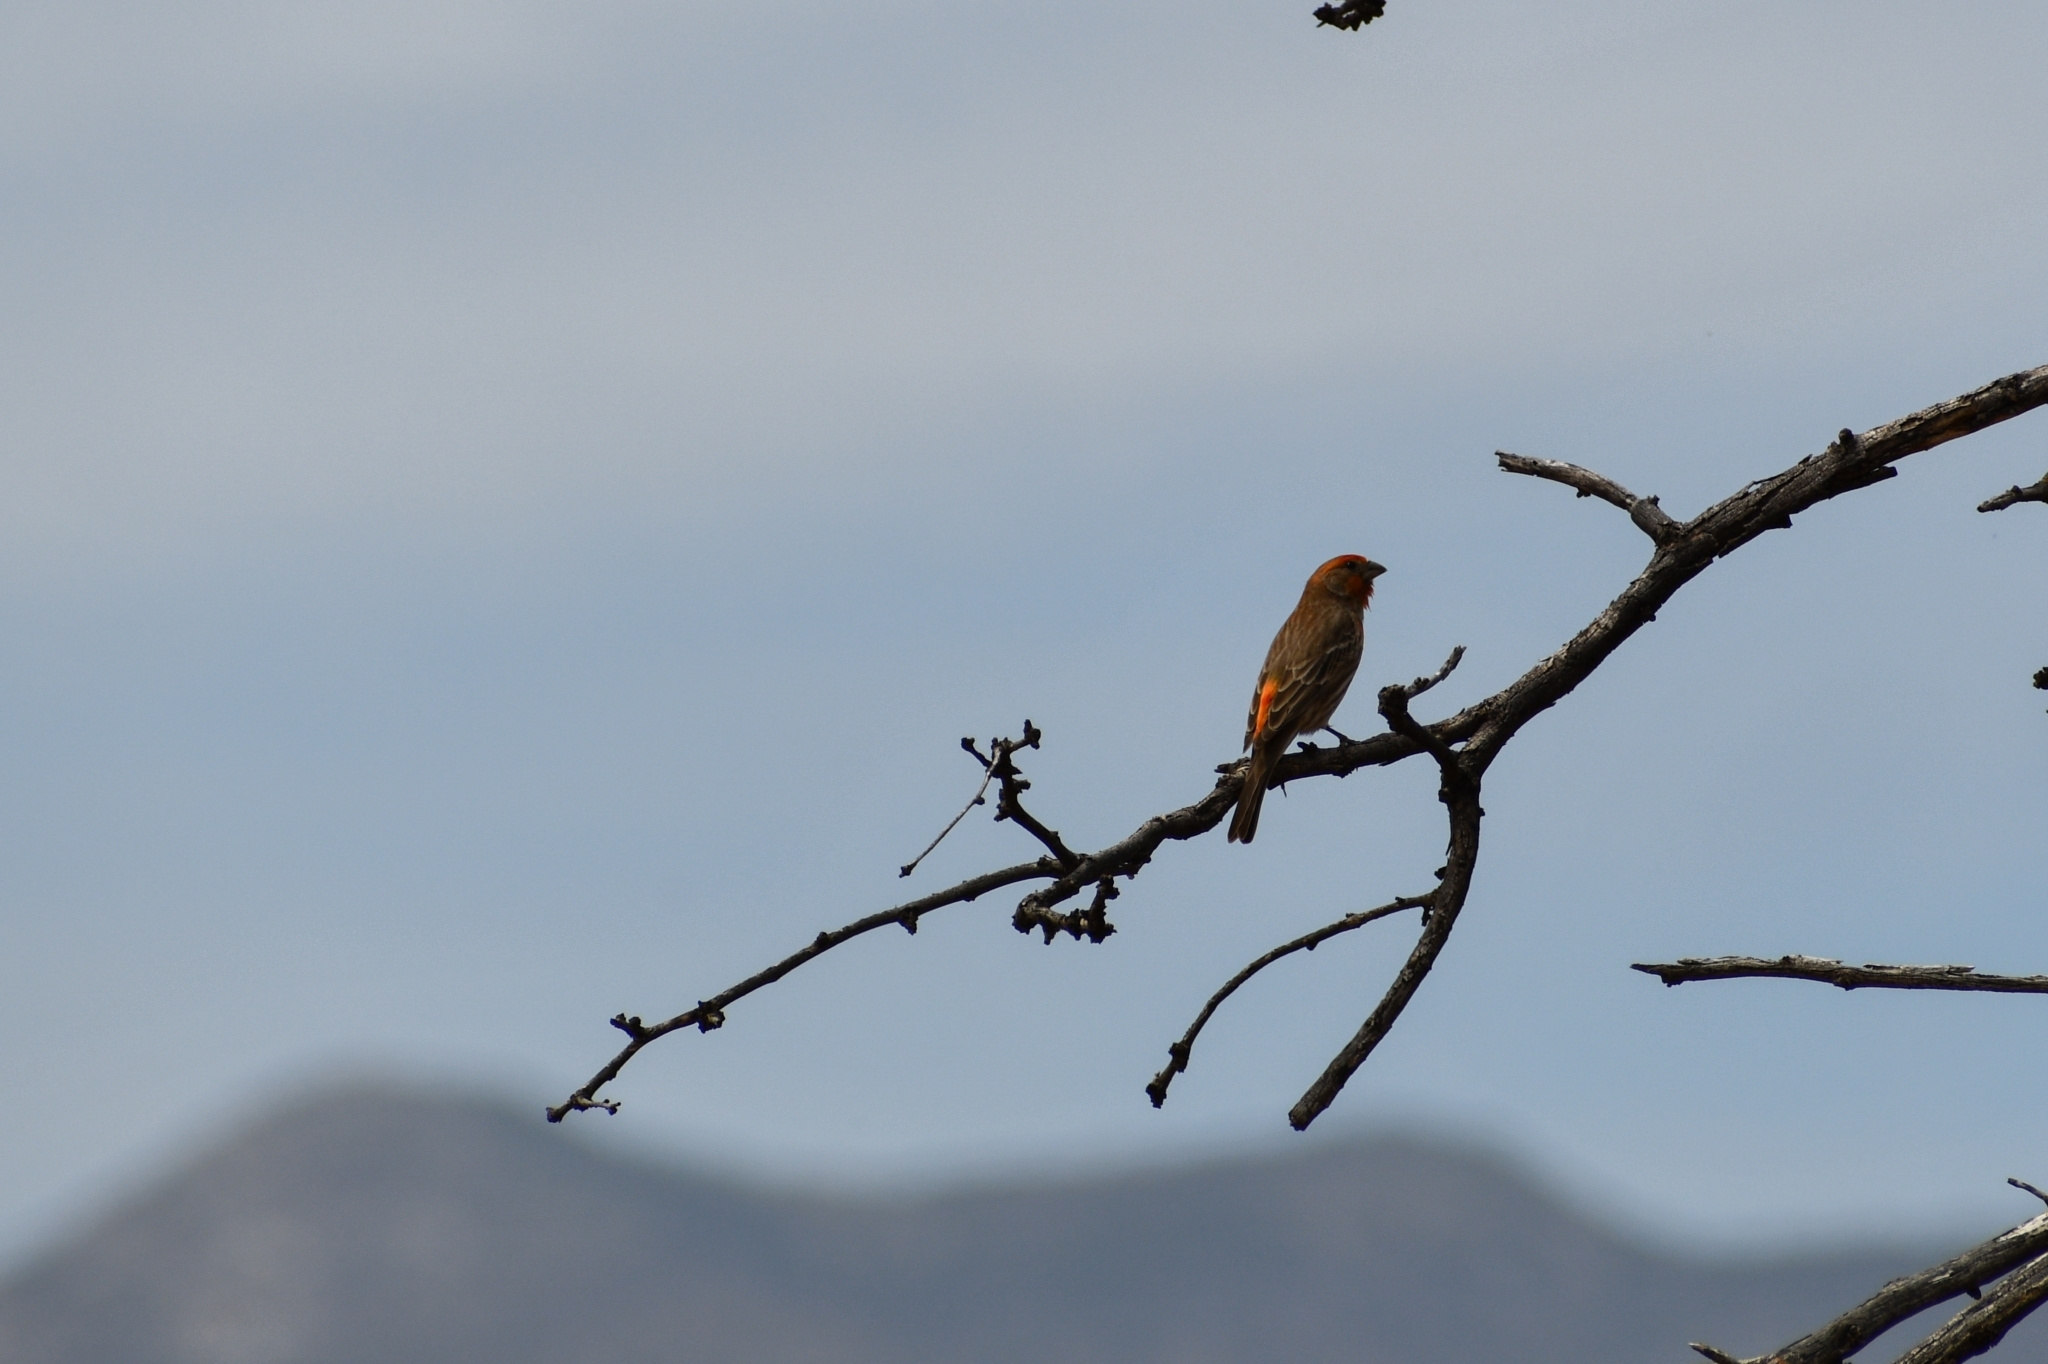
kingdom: Animalia
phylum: Chordata
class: Aves
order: Passeriformes
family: Fringillidae
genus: Haemorhous
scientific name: Haemorhous mexicanus
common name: House finch
